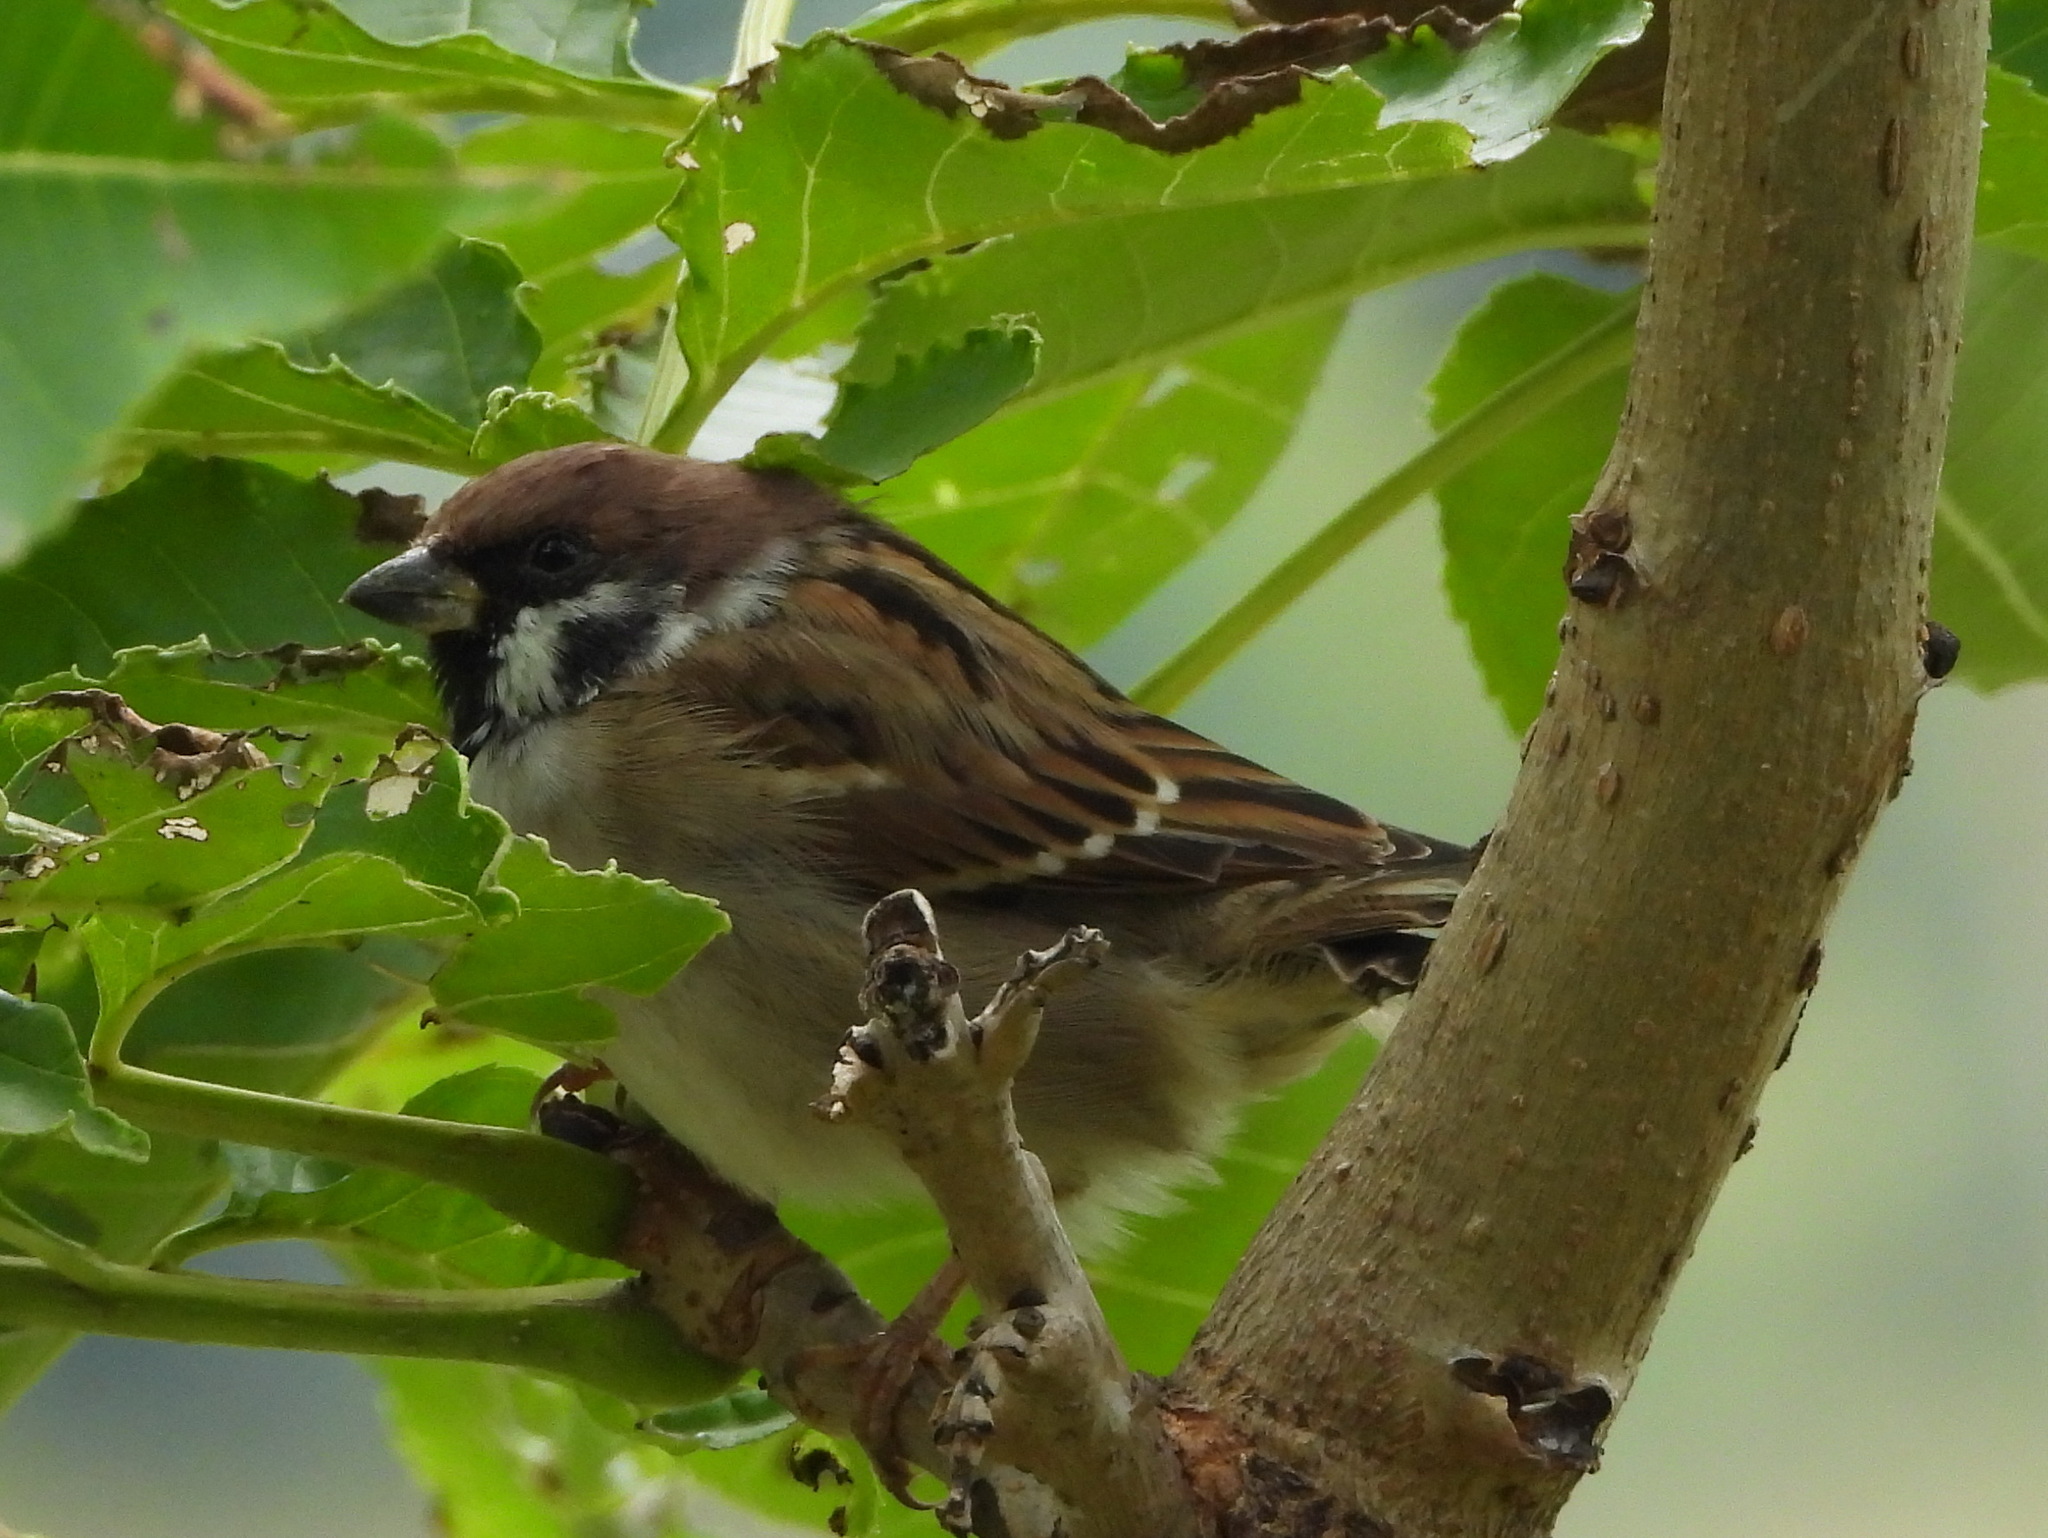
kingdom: Animalia
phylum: Chordata
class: Aves
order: Passeriformes
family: Passeridae
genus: Passer
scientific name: Passer montanus
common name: Eurasian tree sparrow
